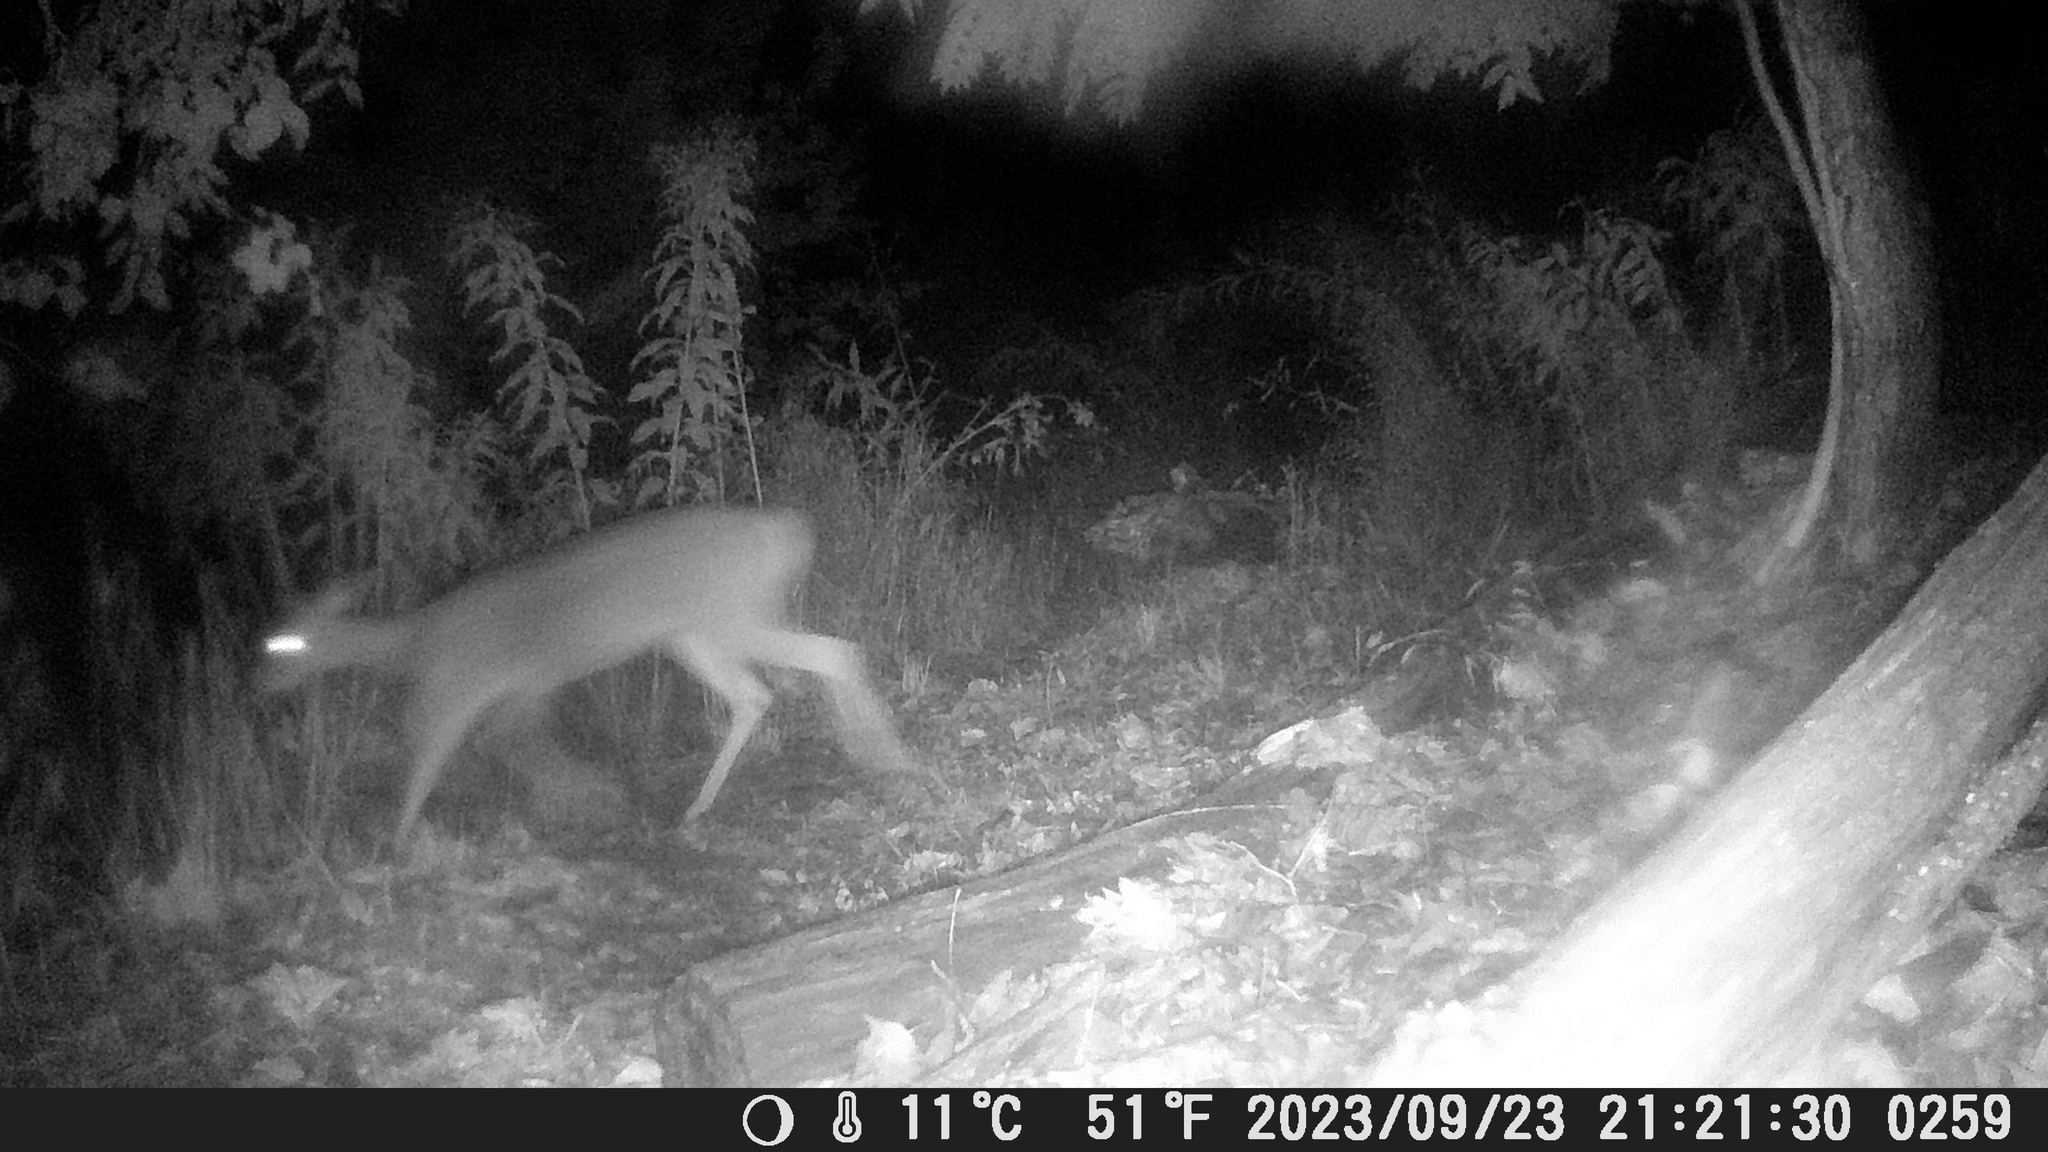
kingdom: Animalia
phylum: Chordata
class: Mammalia
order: Artiodactyla
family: Cervidae
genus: Odocoileus
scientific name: Odocoileus virginianus
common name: White-tailed deer
